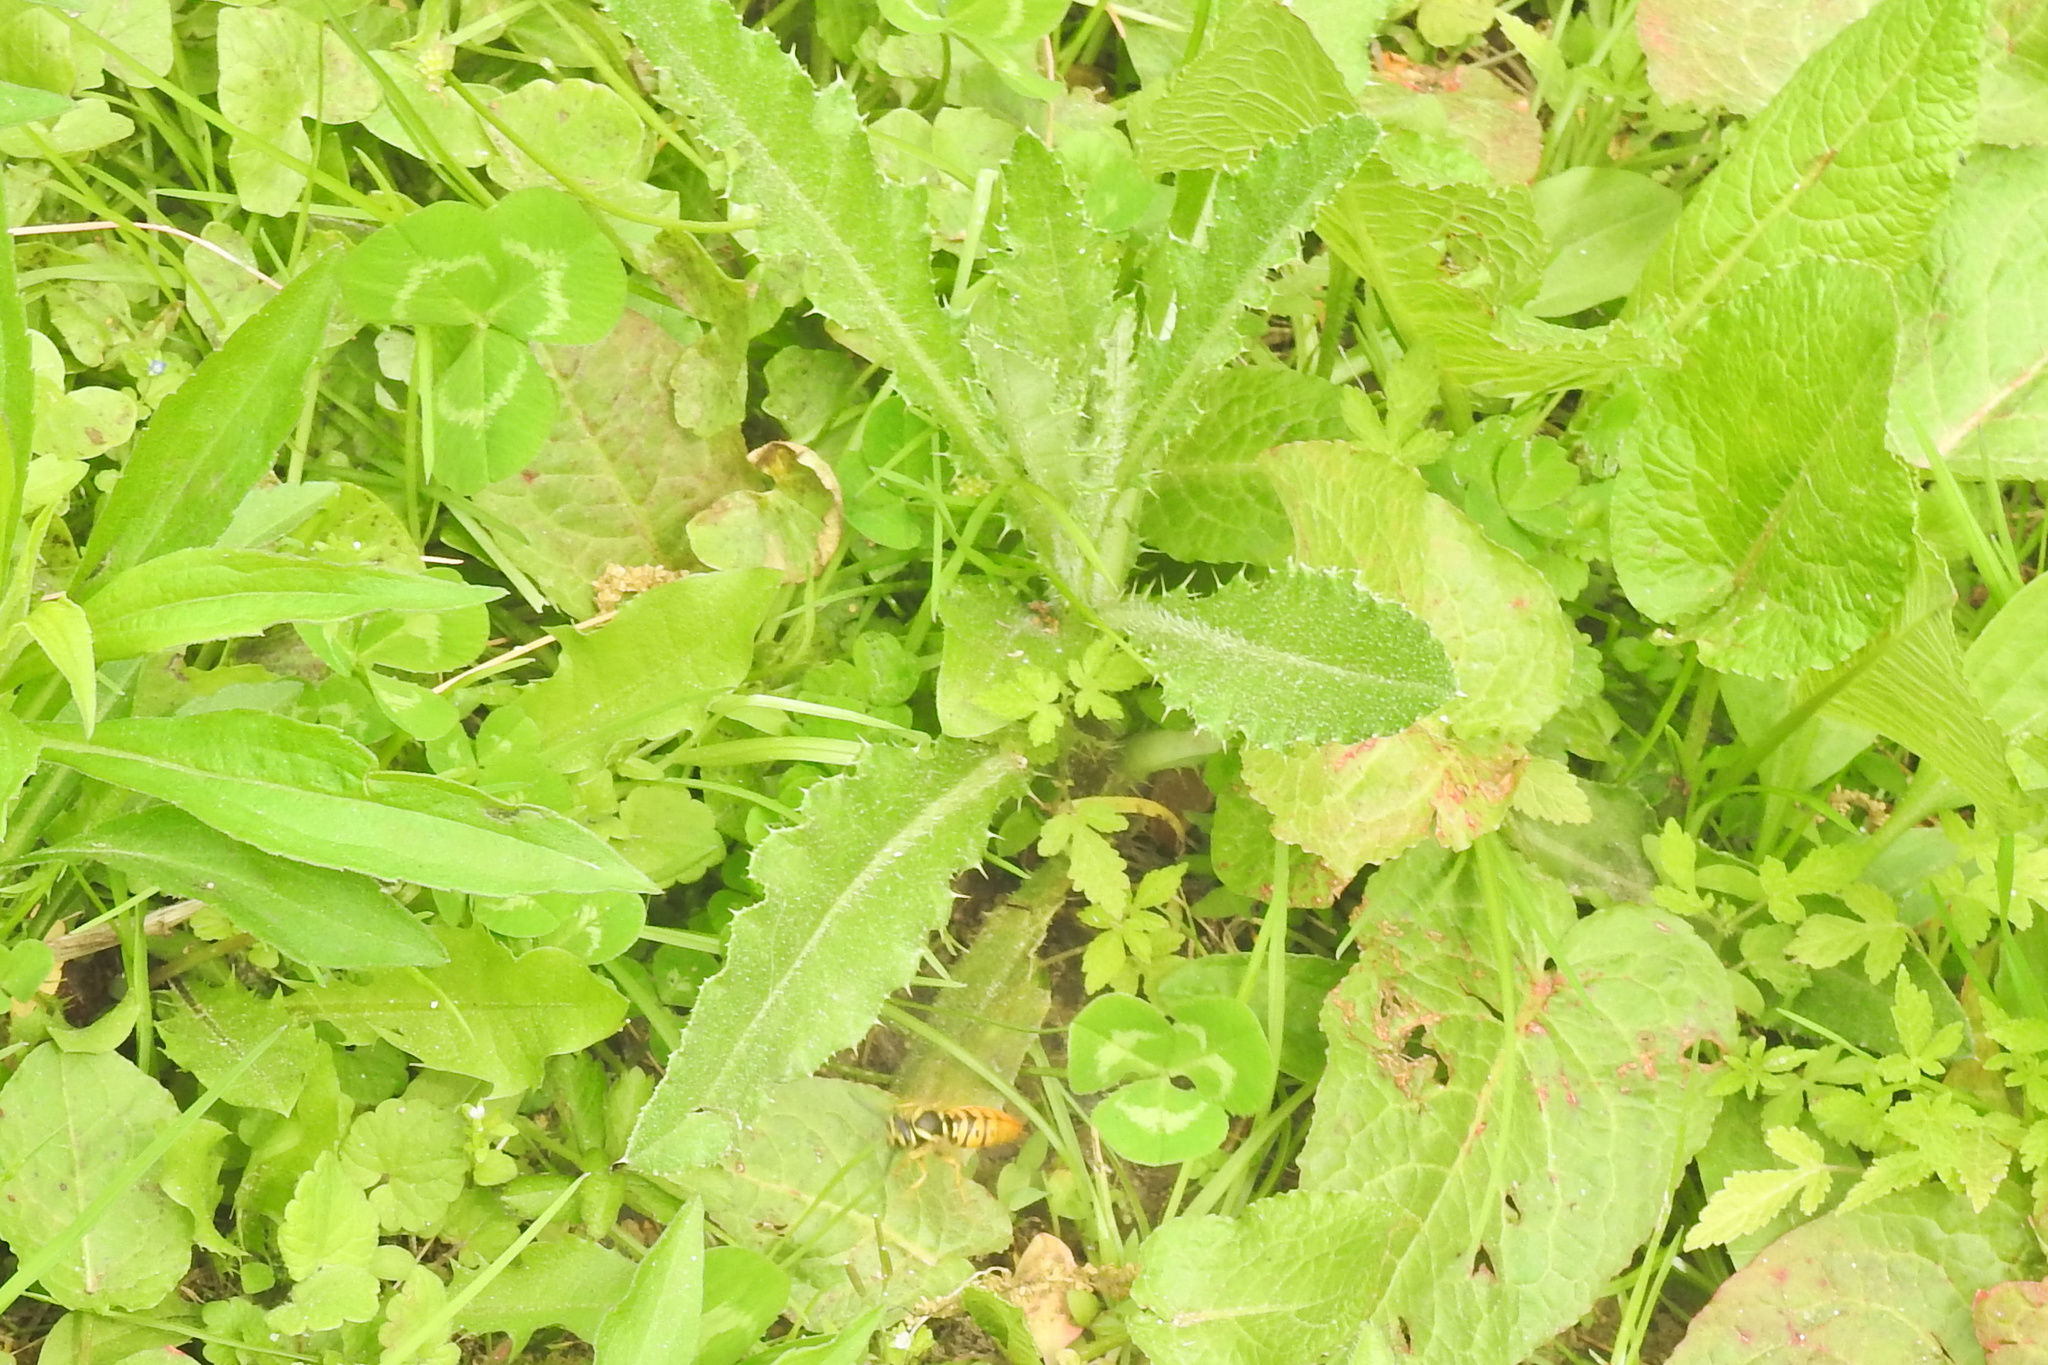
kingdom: Plantae
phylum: Tracheophyta
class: Magnoliopsida
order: Asterales
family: Asteraceae
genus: Cirsium
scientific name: Cirsium arvense
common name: Creeping thistle
